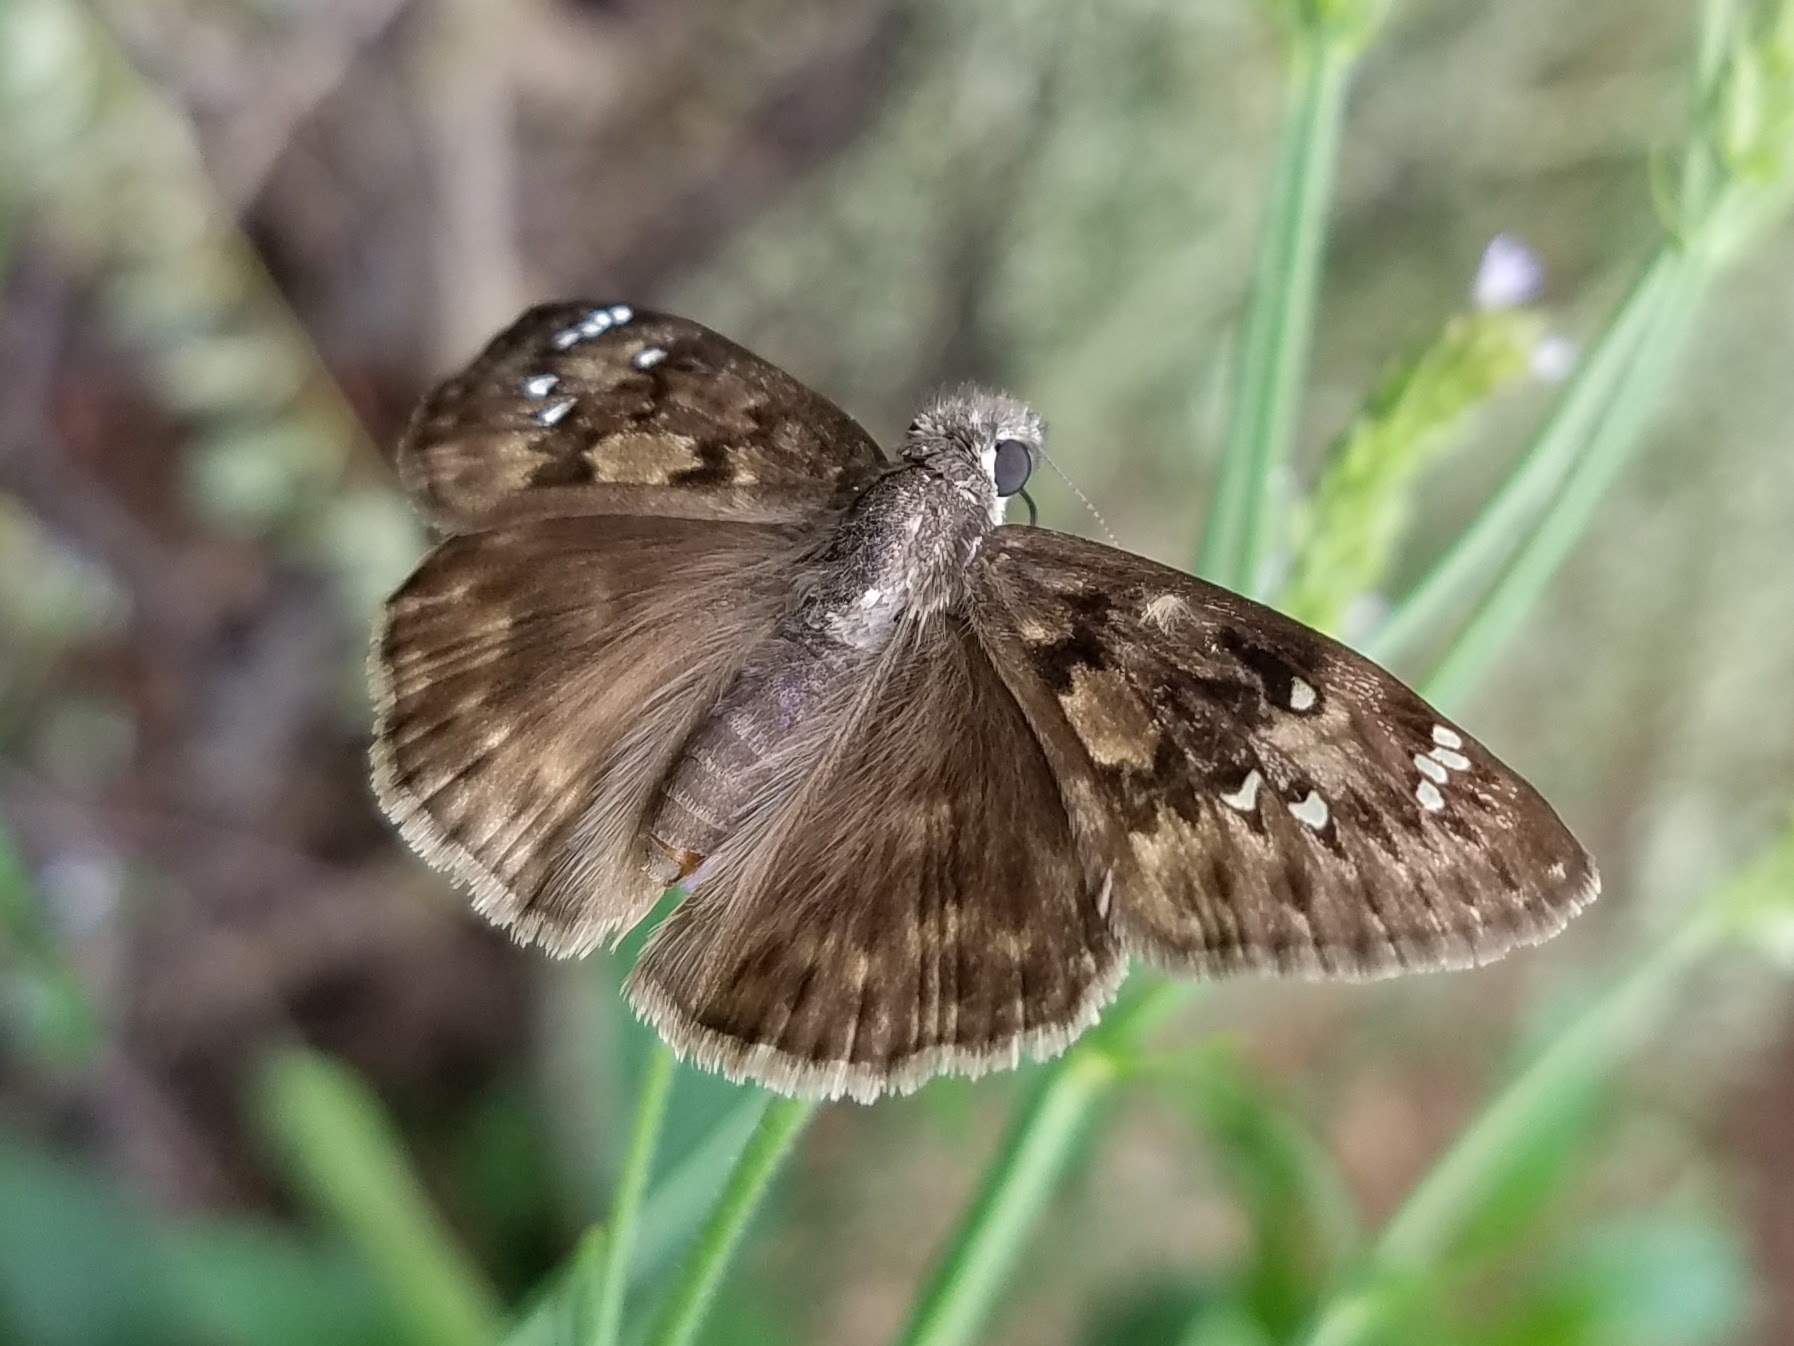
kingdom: Animalia
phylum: Arthropoda
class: Insecta
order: Lepidoptera
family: Hesperiidae
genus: Erynnis
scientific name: Erynnis horatius
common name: Horace's duskywing
